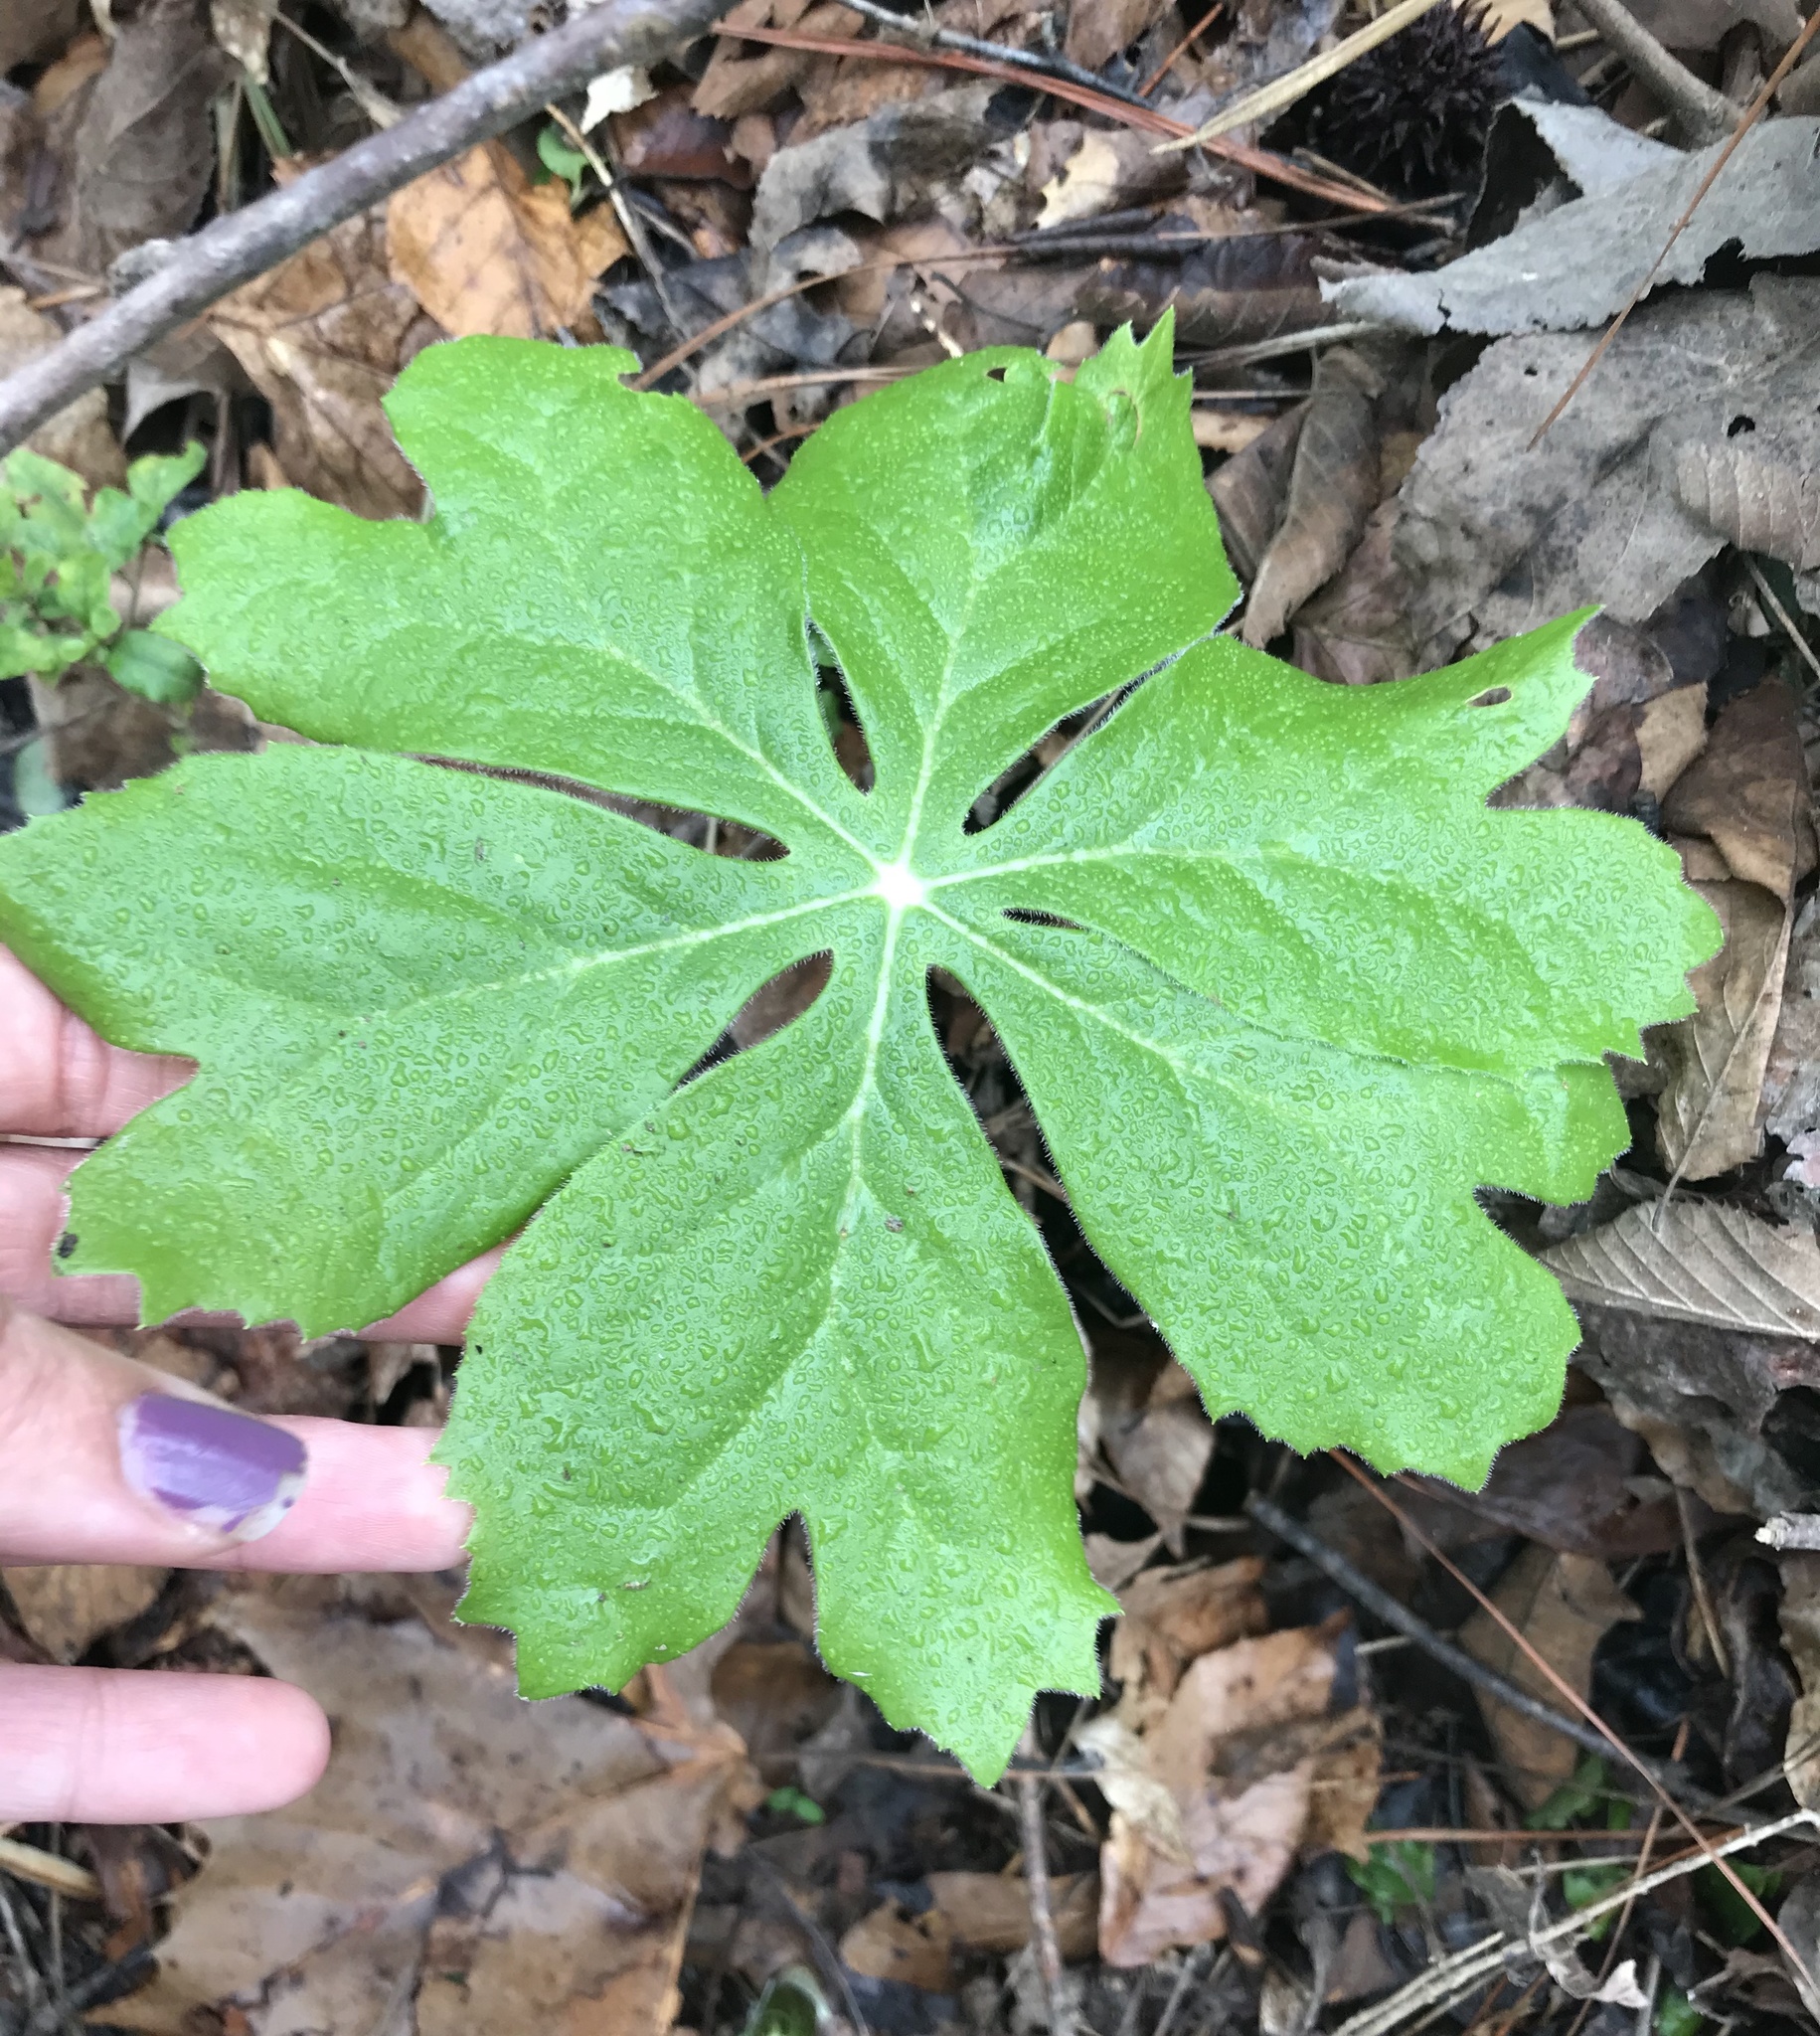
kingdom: Plantae
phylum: Tracheophyta
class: Magnoliopsida
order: Ranunculales
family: Berberidaceae
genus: Podophyllum
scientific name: Podophyllum peltatum
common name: Wild mandrake
